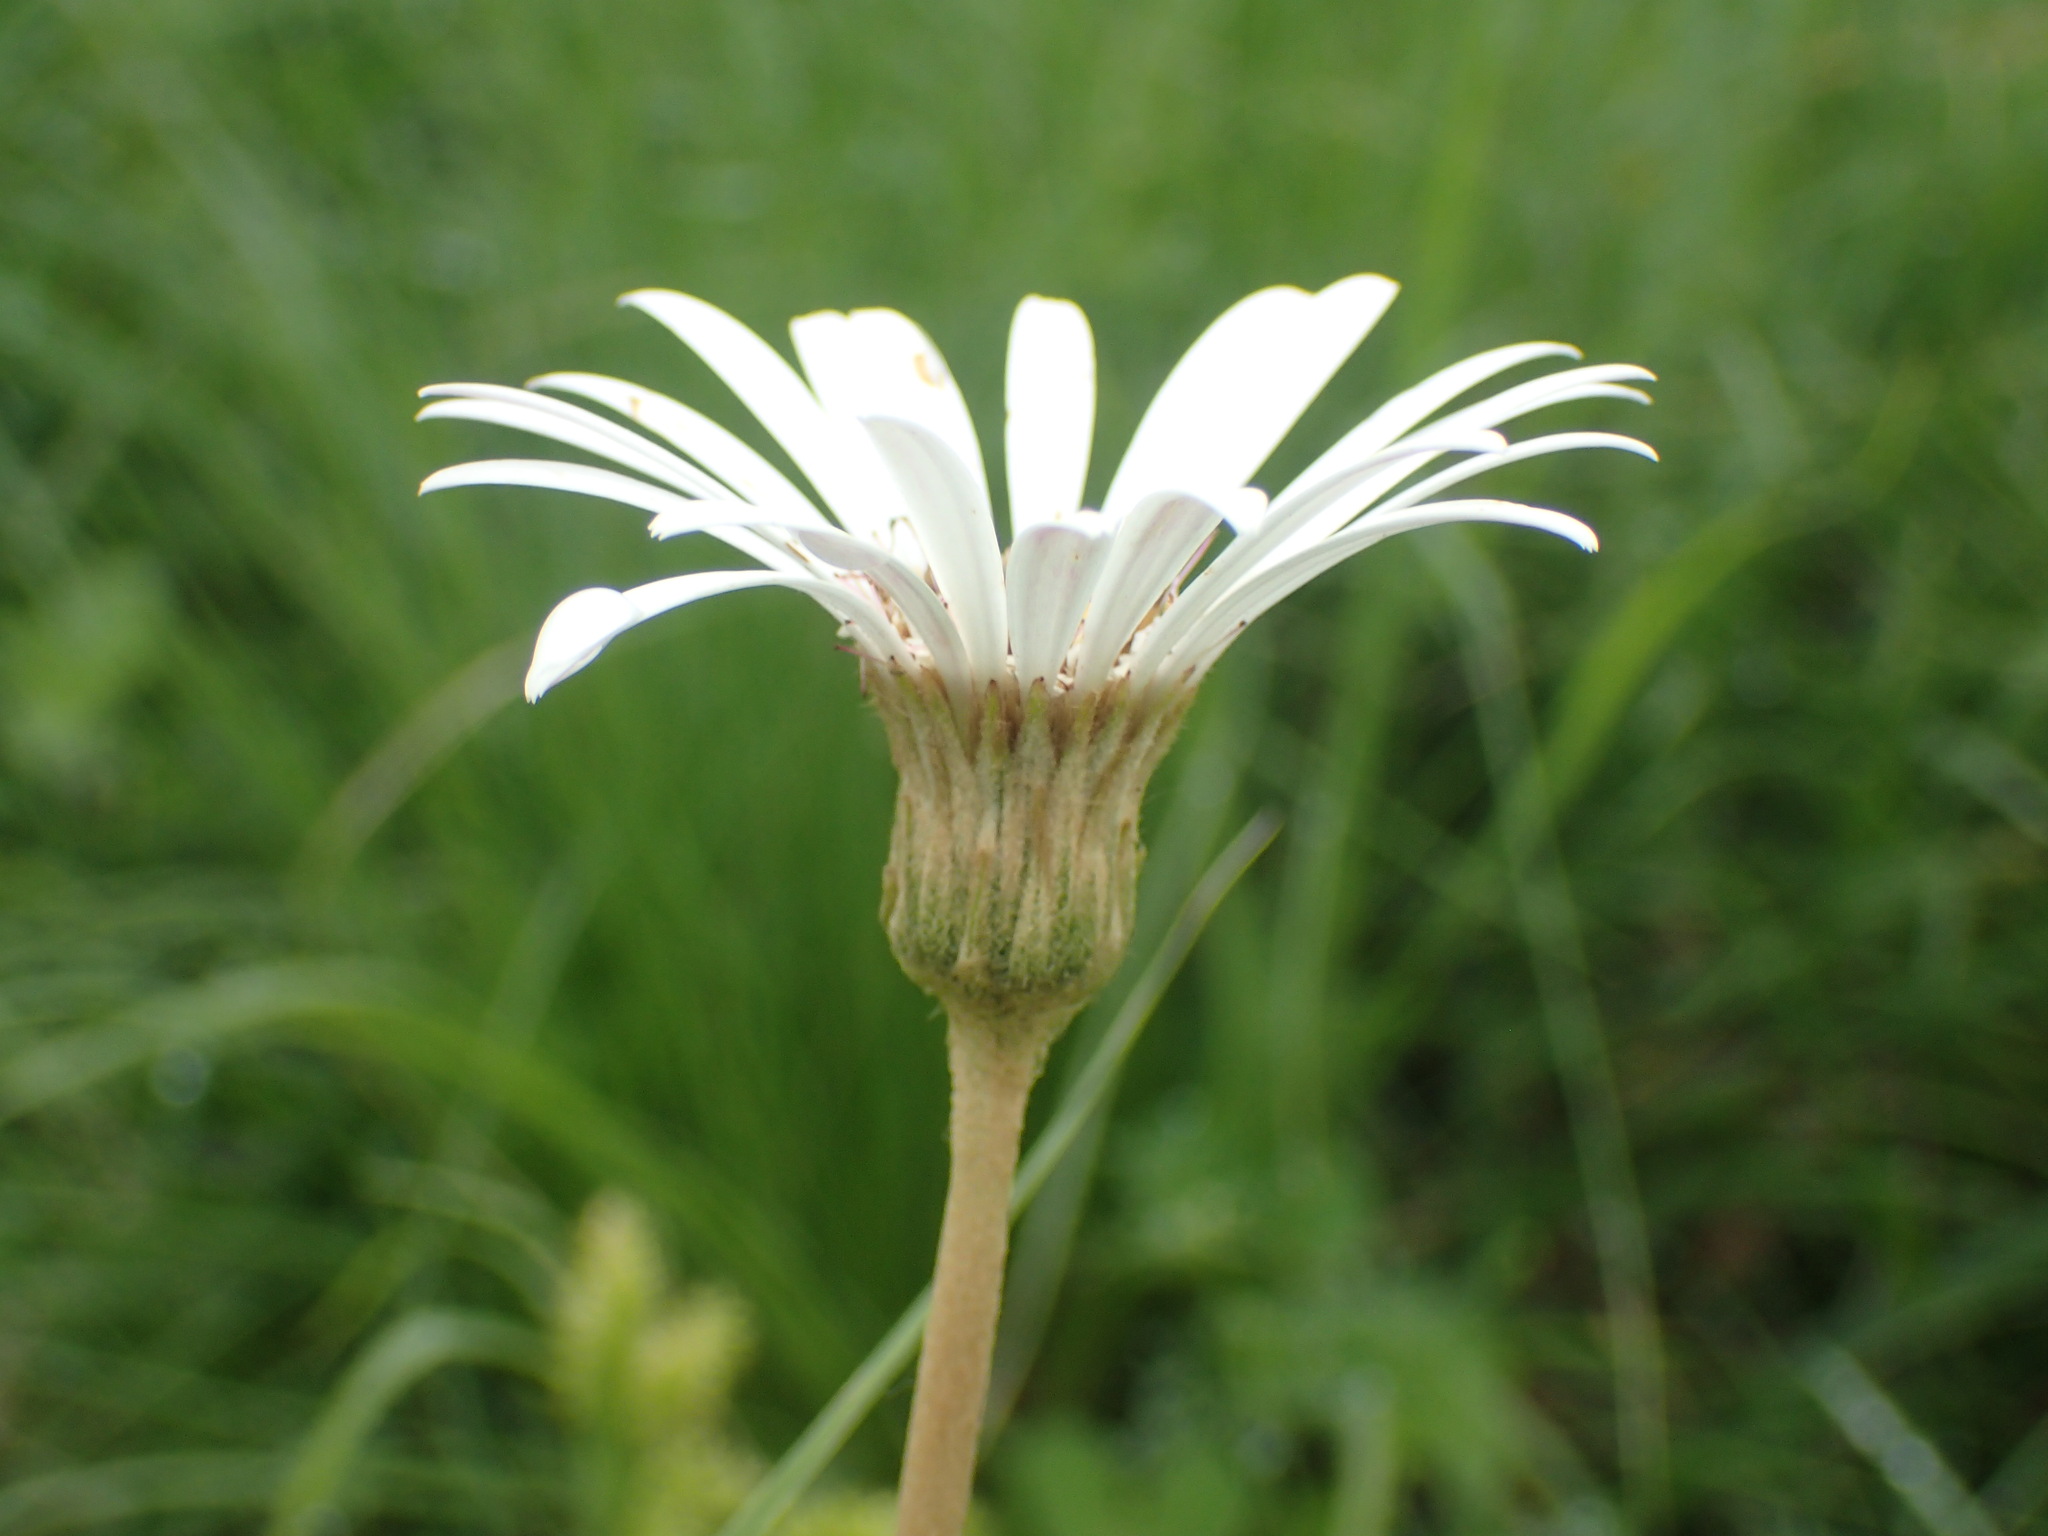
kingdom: Plantae
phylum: Tracheophyta
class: Magnoliopsida
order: Asterales
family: Asteraceae
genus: Gerbera
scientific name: Gerbera ambigua
